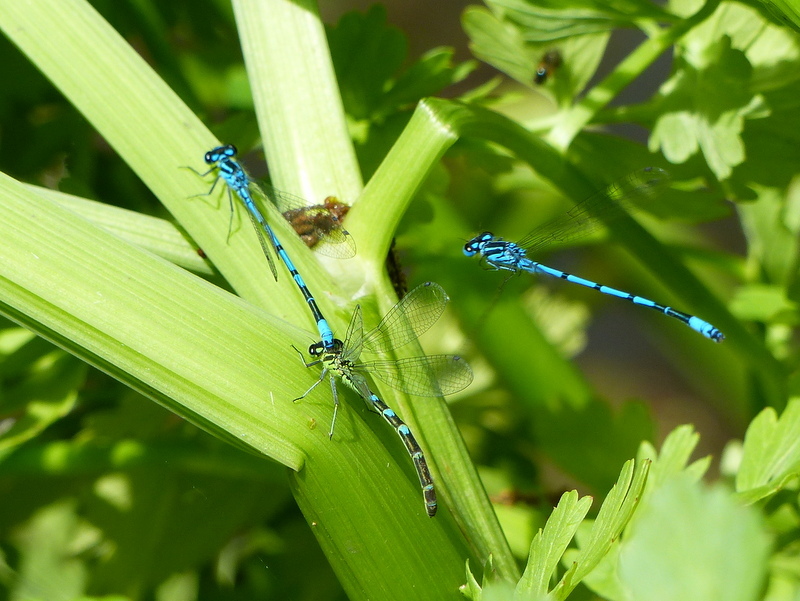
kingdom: Animalia
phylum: Arthropoda
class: Insecta
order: Odonata
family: Coenagrionidae
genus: Coenagrion
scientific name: Coenagrion puella
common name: Azure damselfly
